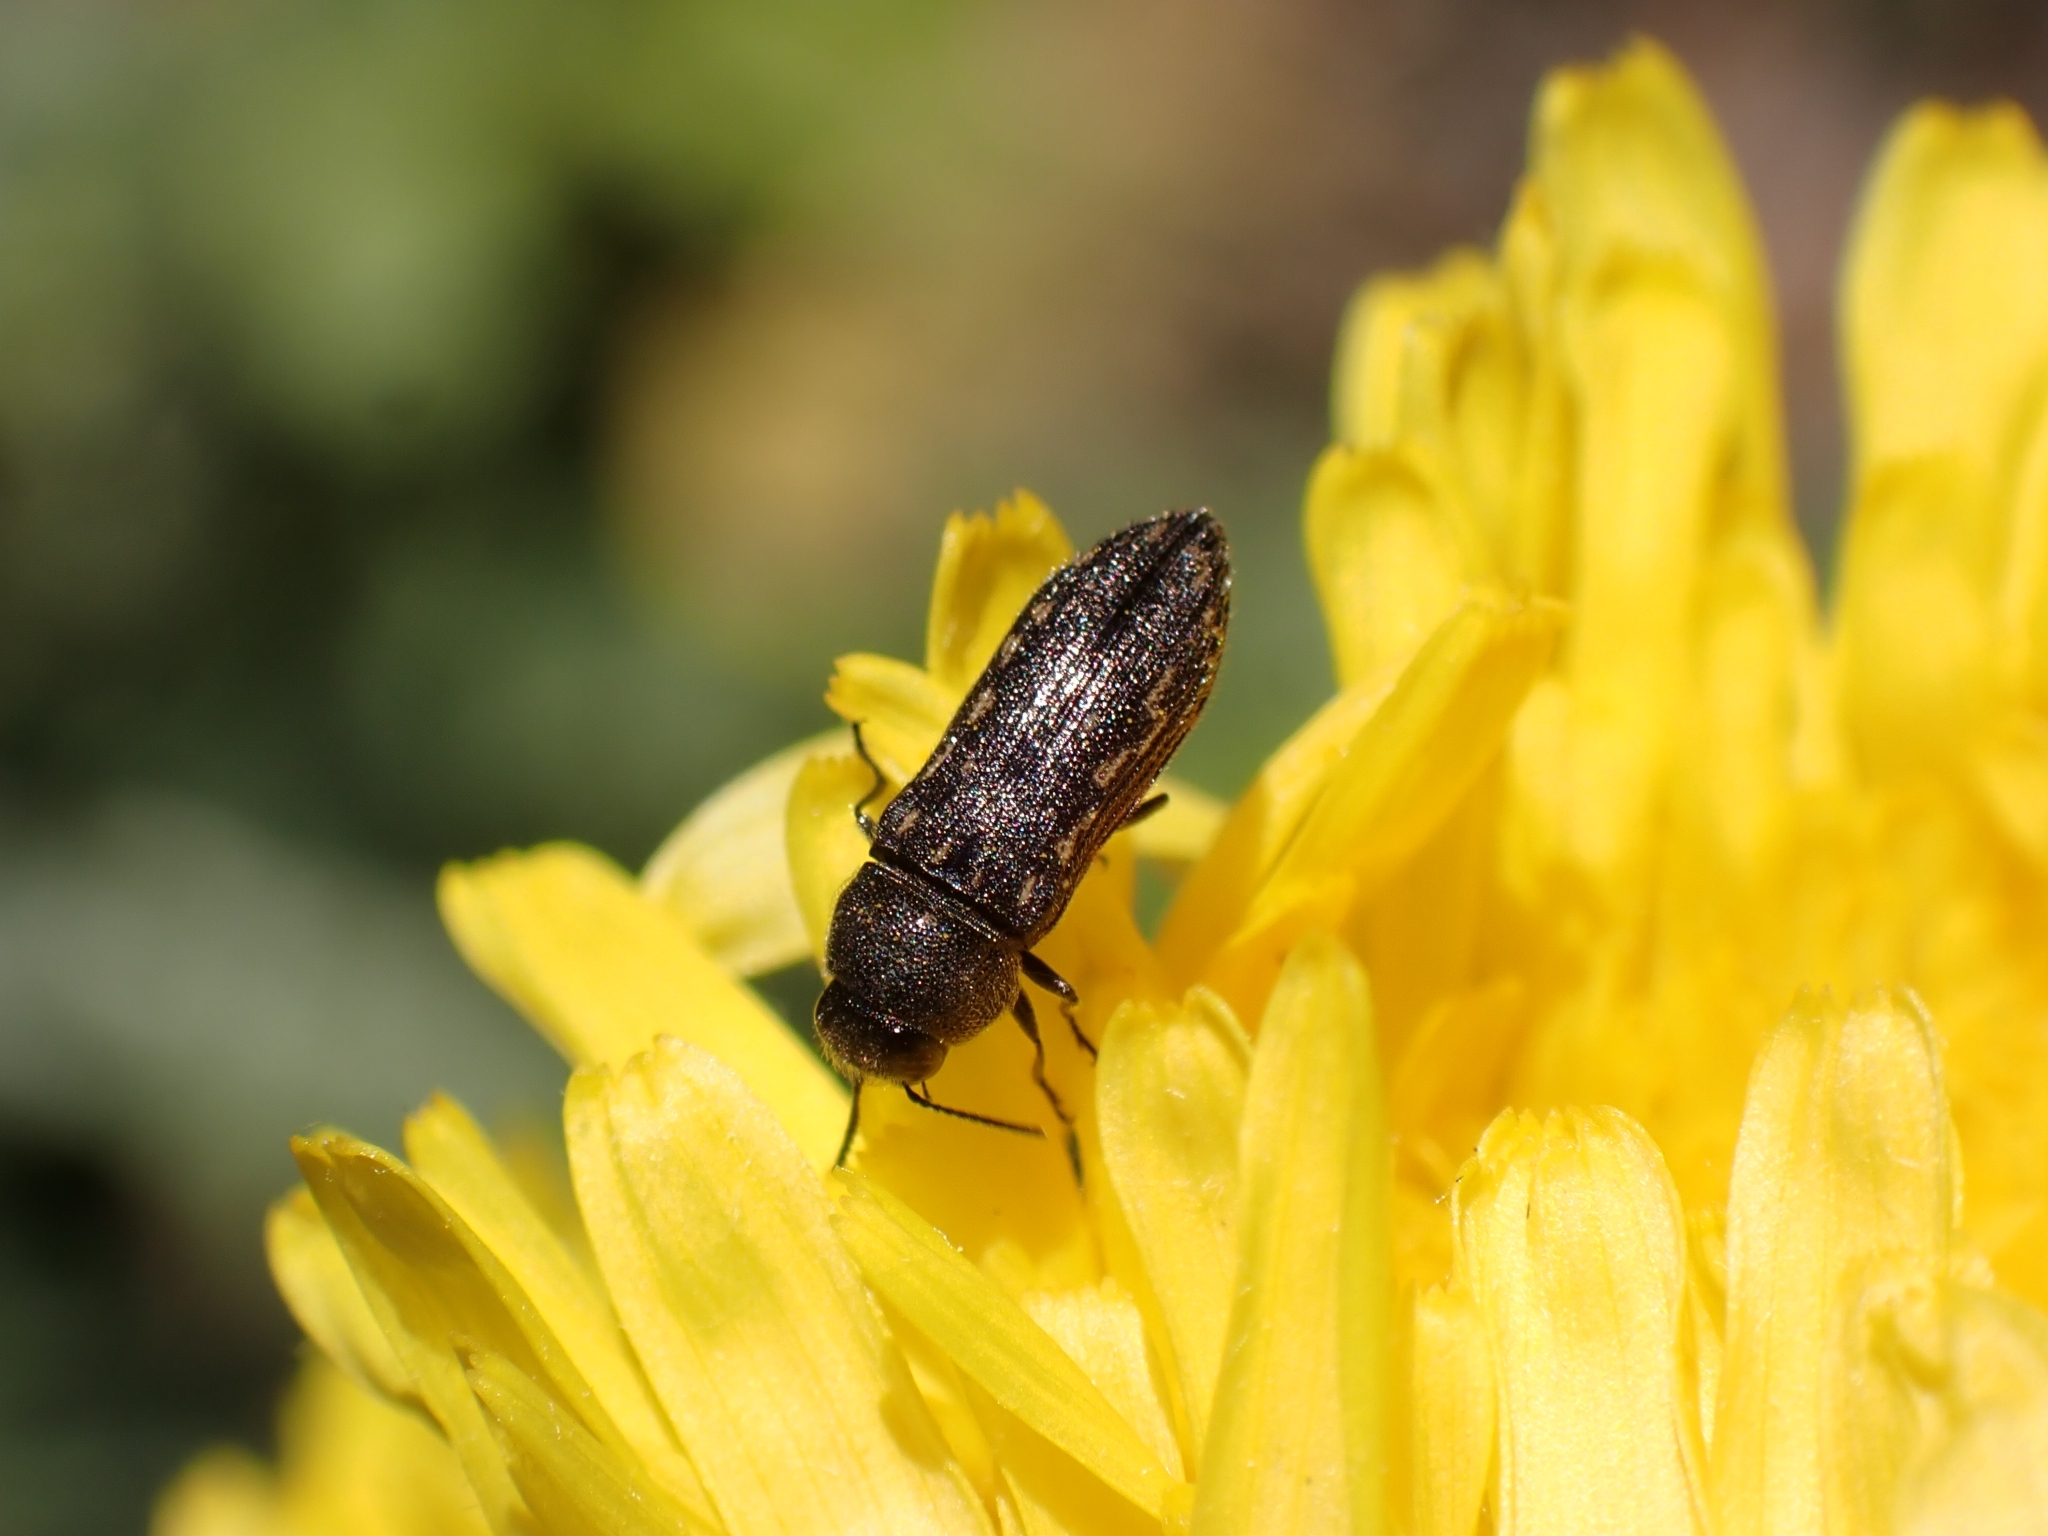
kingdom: Animalia
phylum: Arthropoda
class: Insecta
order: Coleoptera
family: Buprestidae
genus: Acmaeodera
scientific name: Acmaeodera cisti
